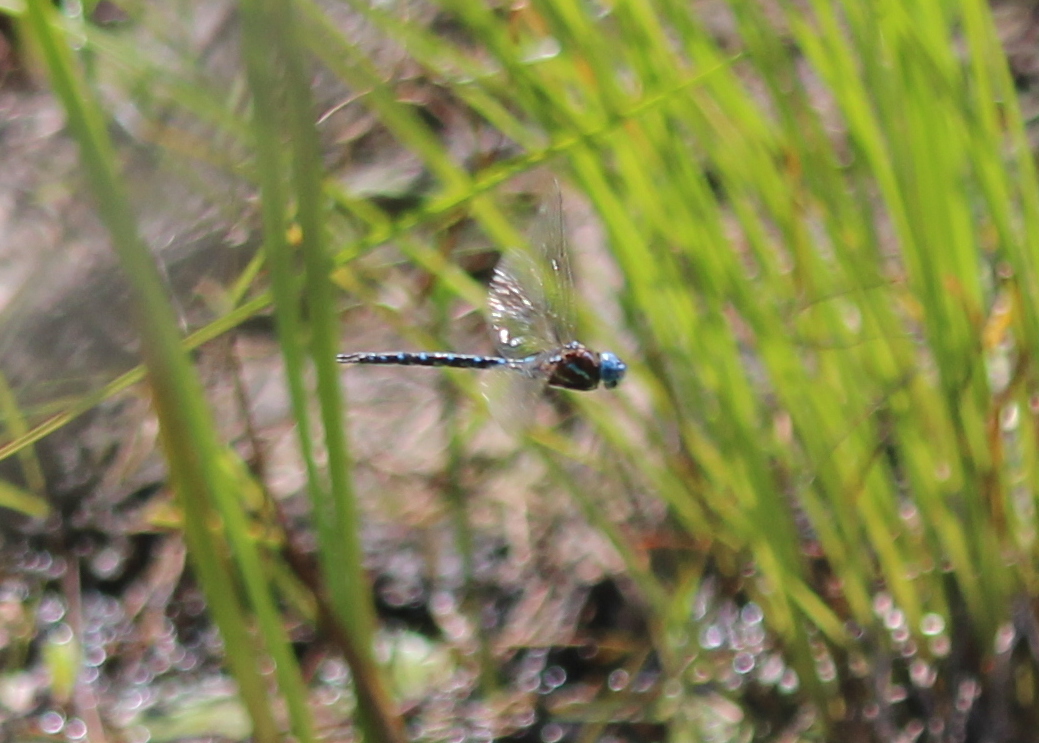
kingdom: Animalia
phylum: Arthropoda
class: Insecta
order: Odonata
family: Aeshnidae
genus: Rhionaeschna
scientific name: Rhionaeschna mutata
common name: Spatterdock darner
